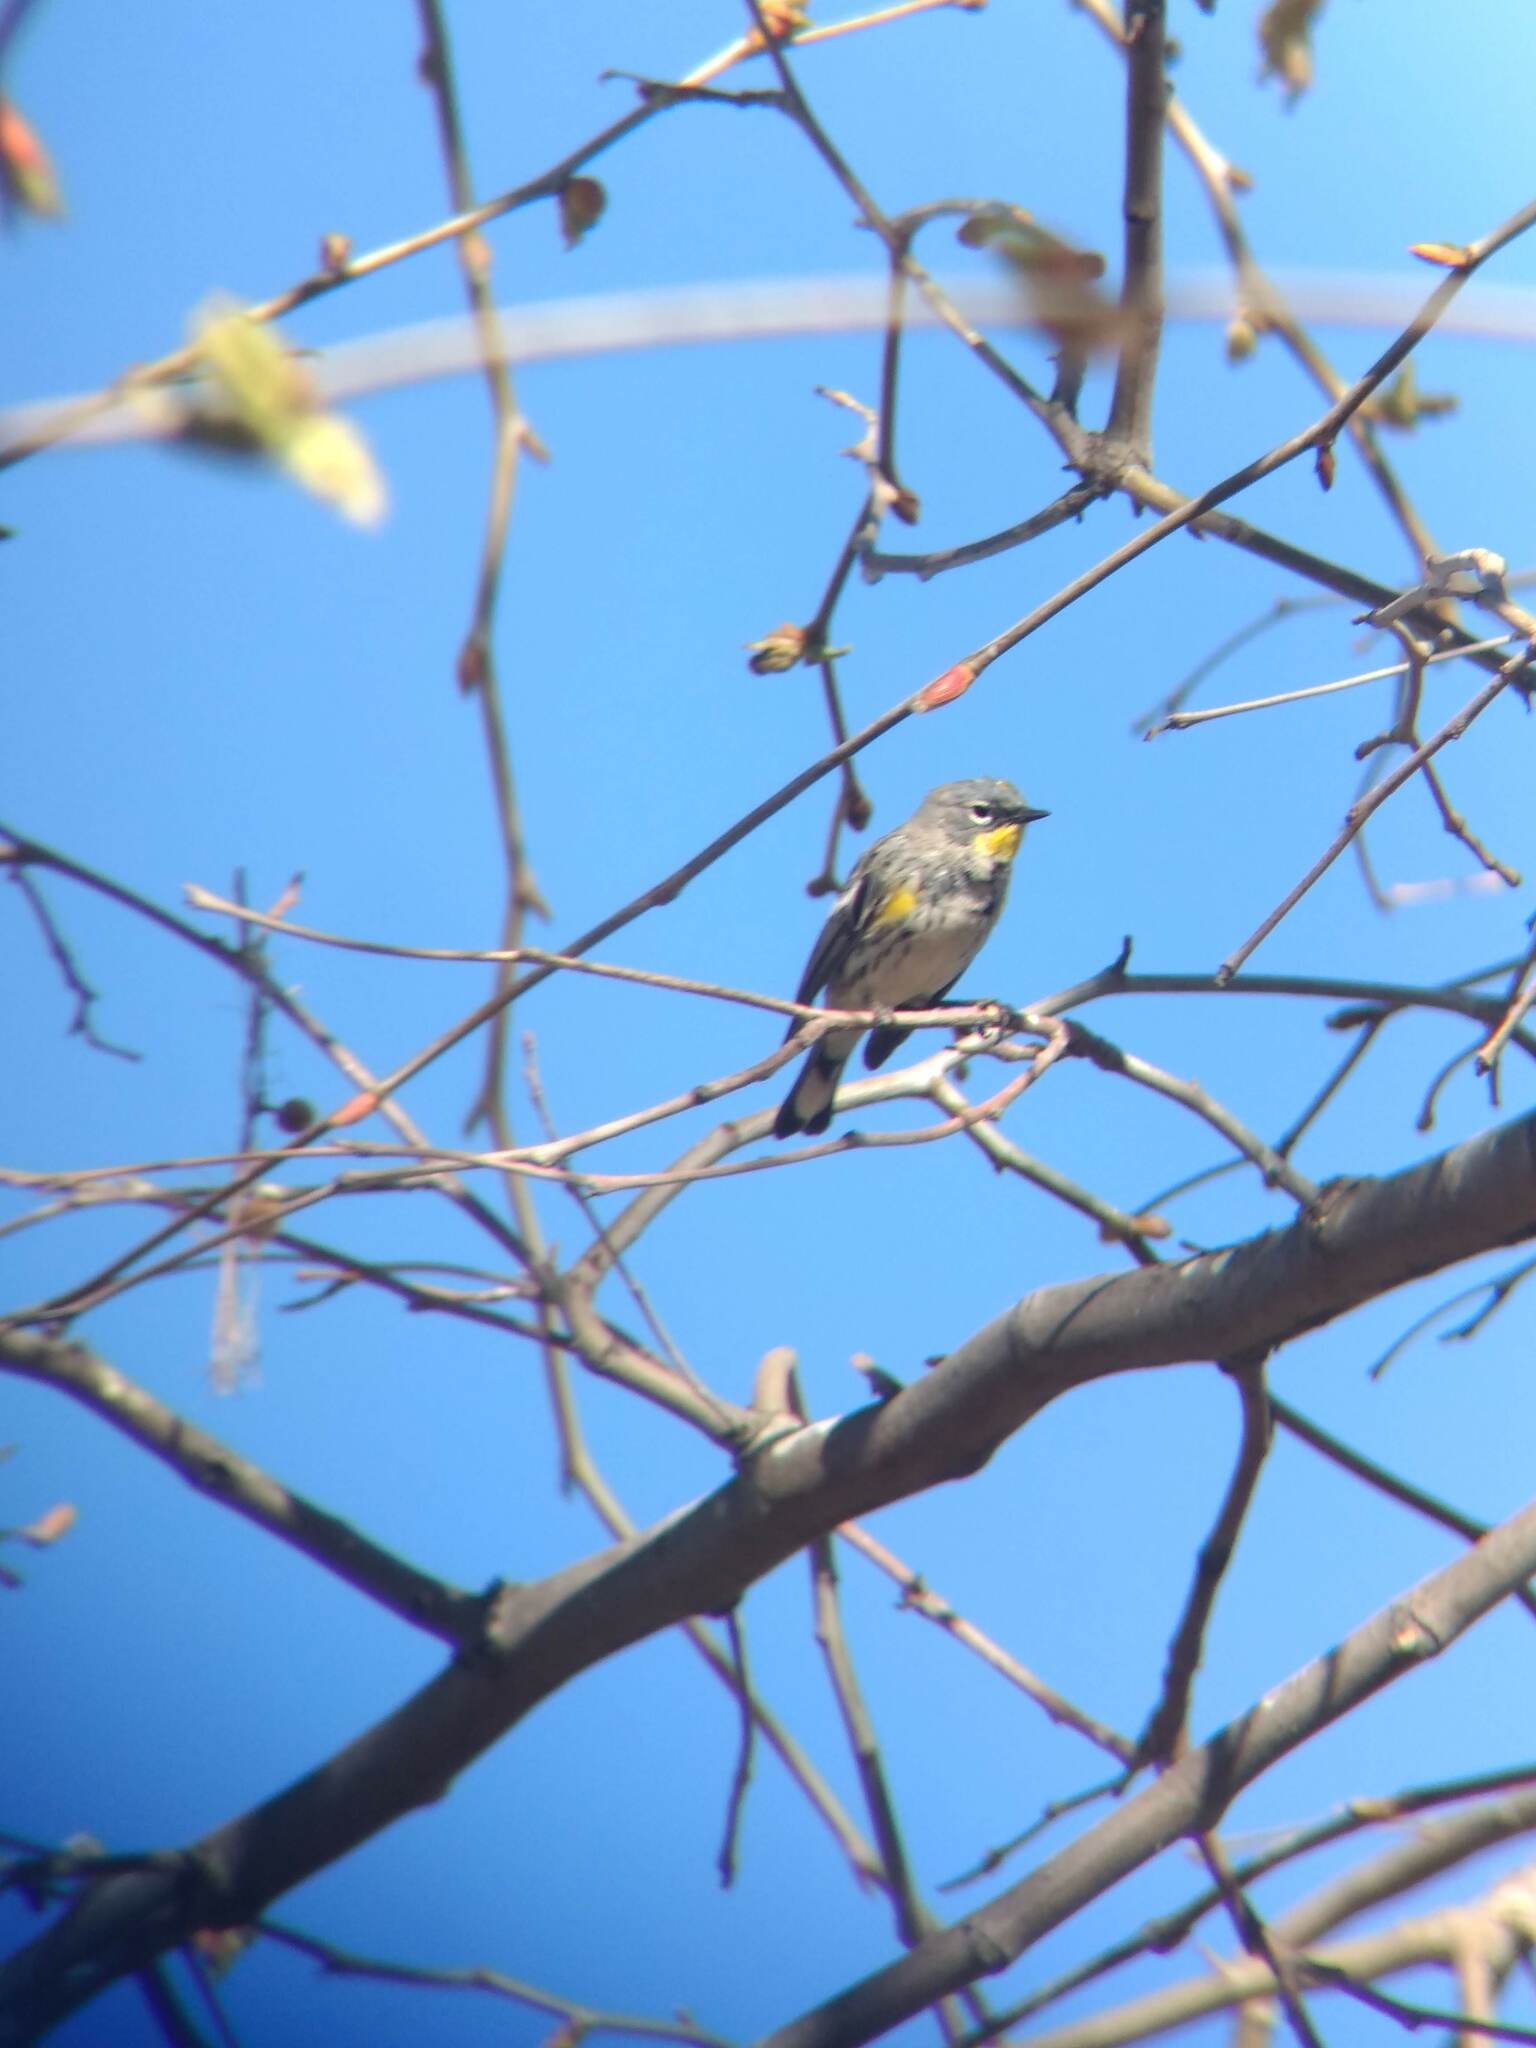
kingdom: Animalia
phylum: Chordata
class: Aves
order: Passeriformes
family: Parulidae
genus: Setophaga
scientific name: Setophaga coronata
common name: Myrtle warbler
